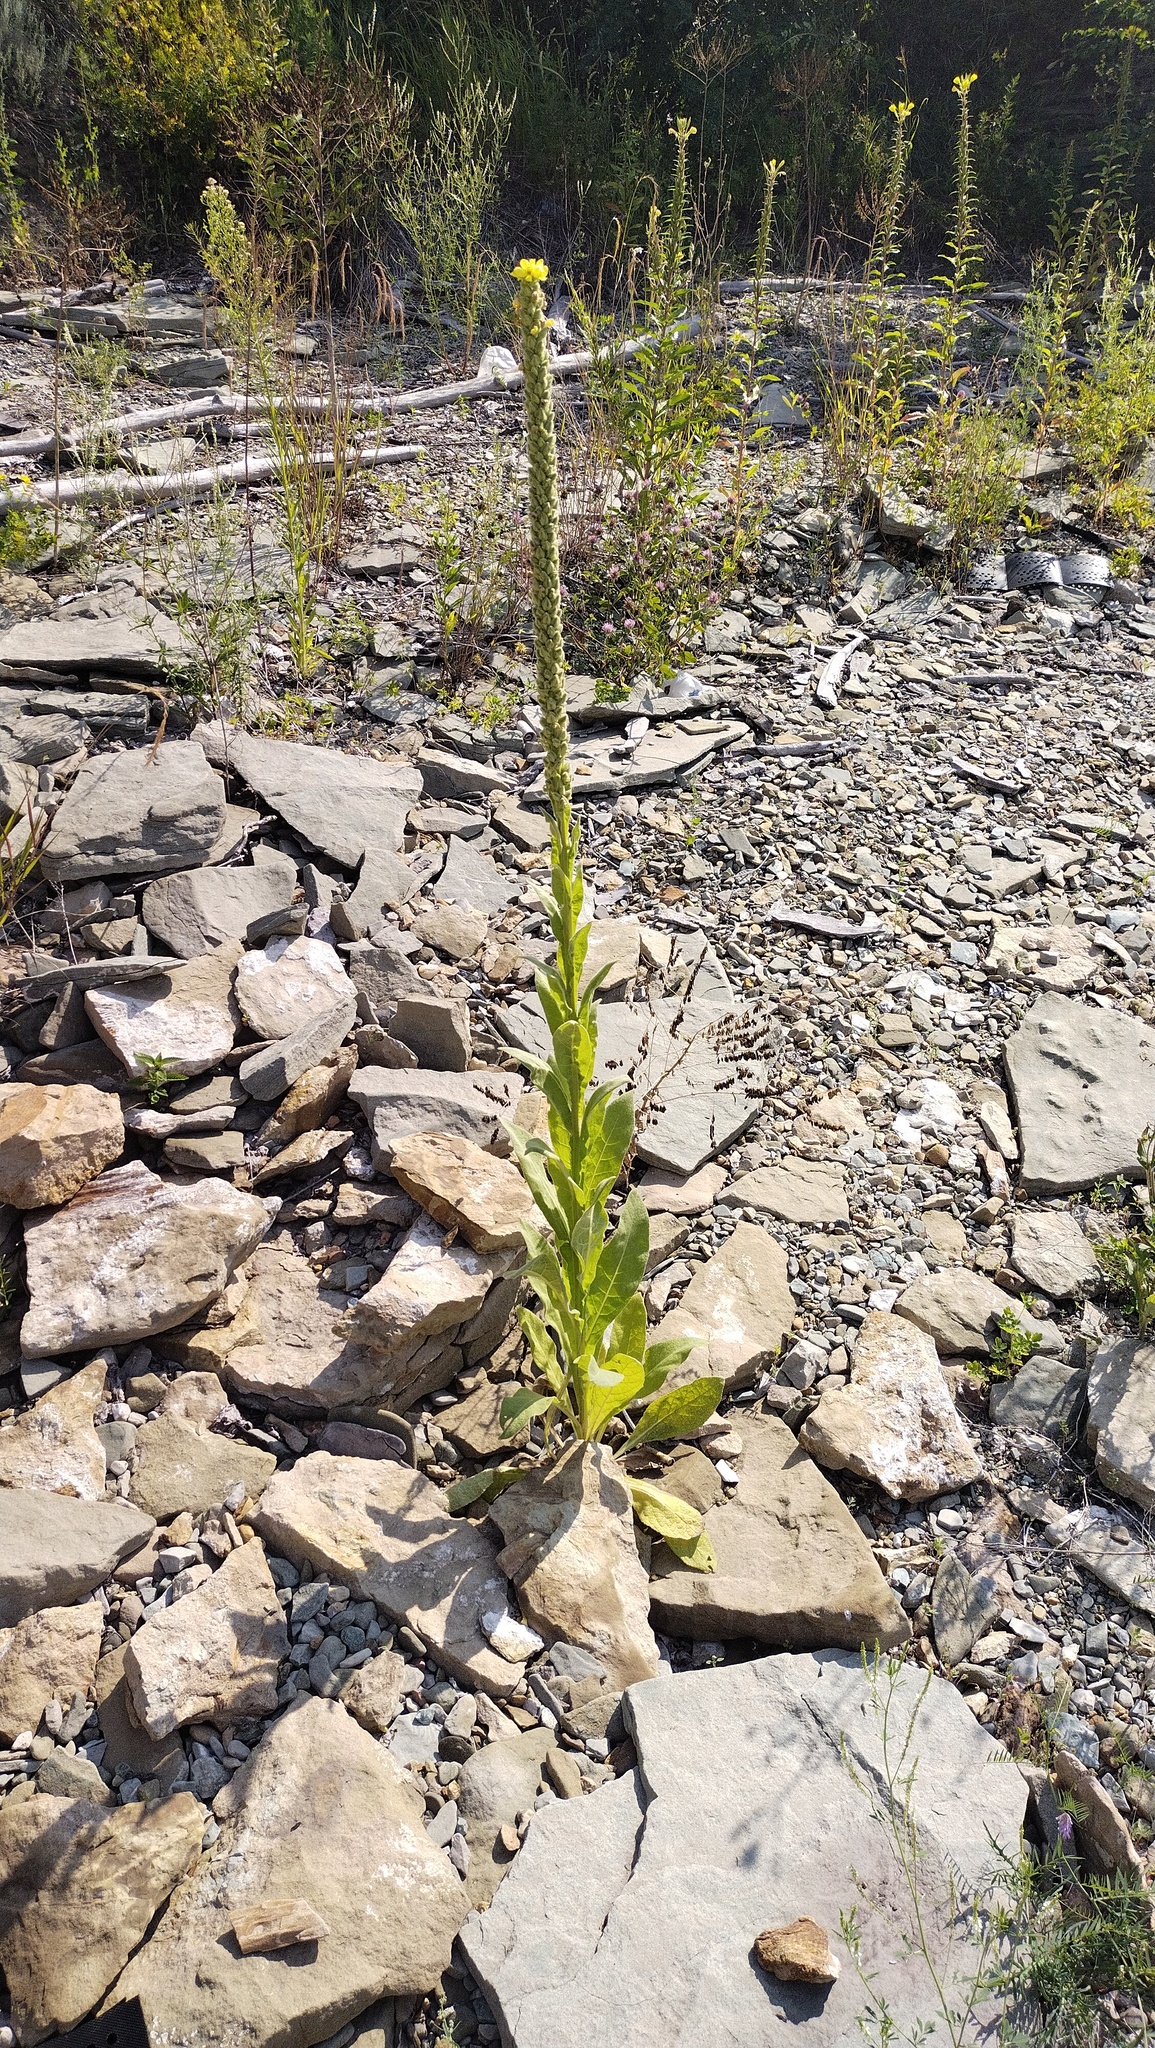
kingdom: Plantae
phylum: Tracheophyta
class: Magnoliopsida
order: Lamiales
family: Scrophulariaceae
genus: Verbascum
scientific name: Verbascum thapsus
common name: Common mullein
